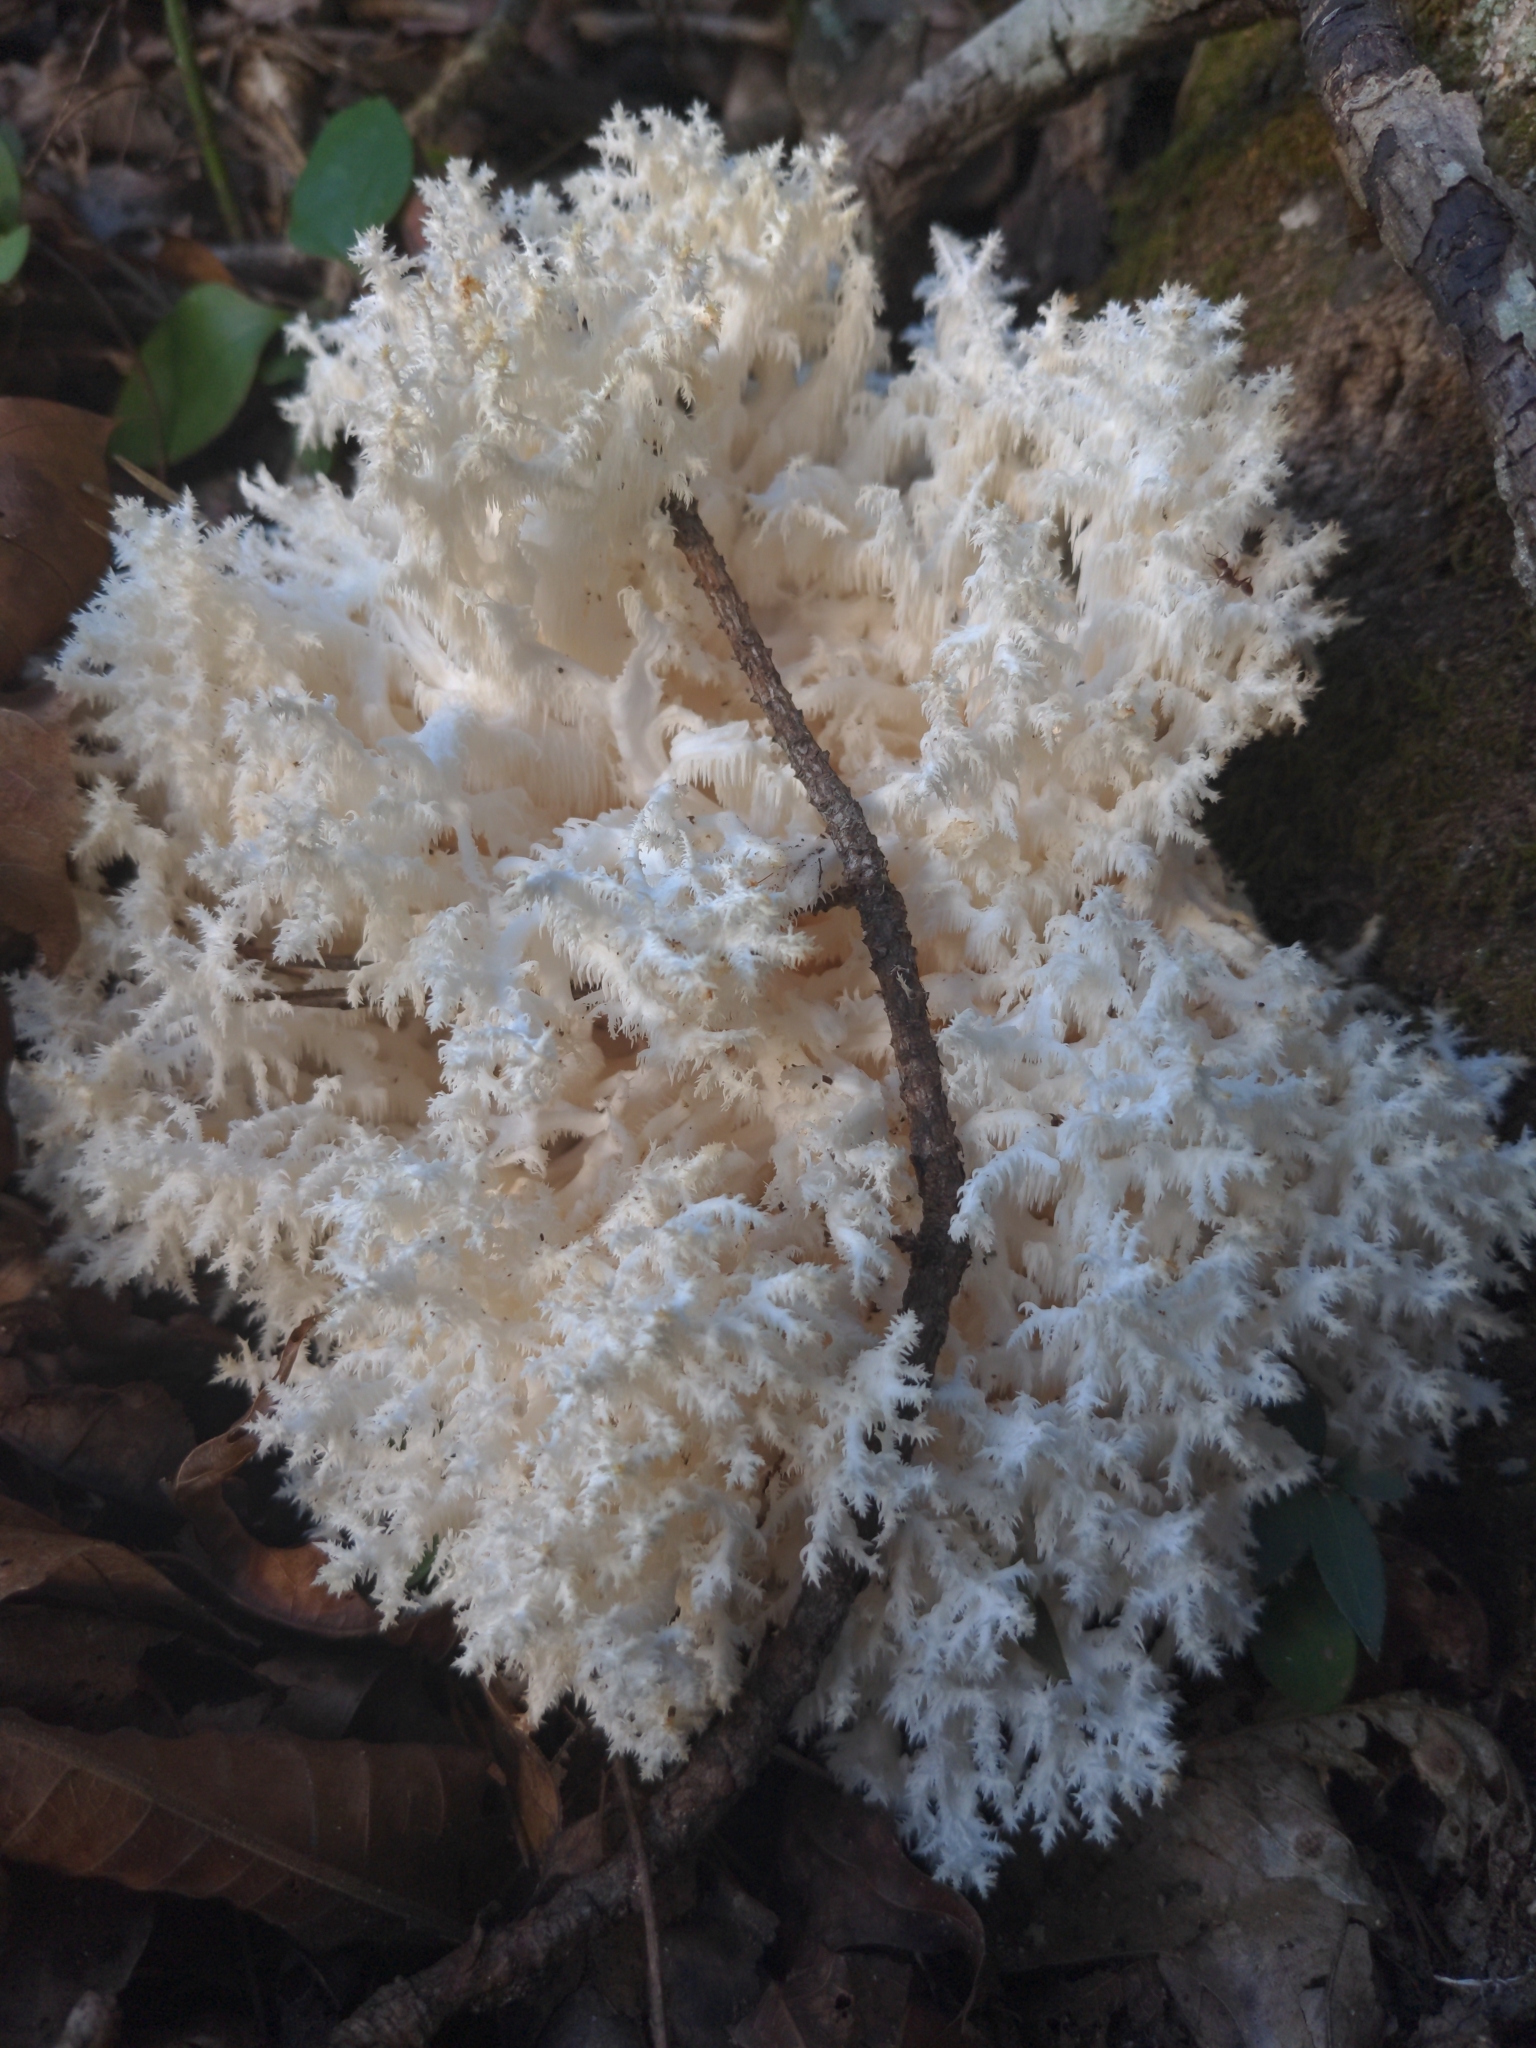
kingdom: Fungi
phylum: Basidiomycota
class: Agaricomycetes
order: Russulales
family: Hericiaceae
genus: Hericium
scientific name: Hericium coralloides
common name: Coral tooth
